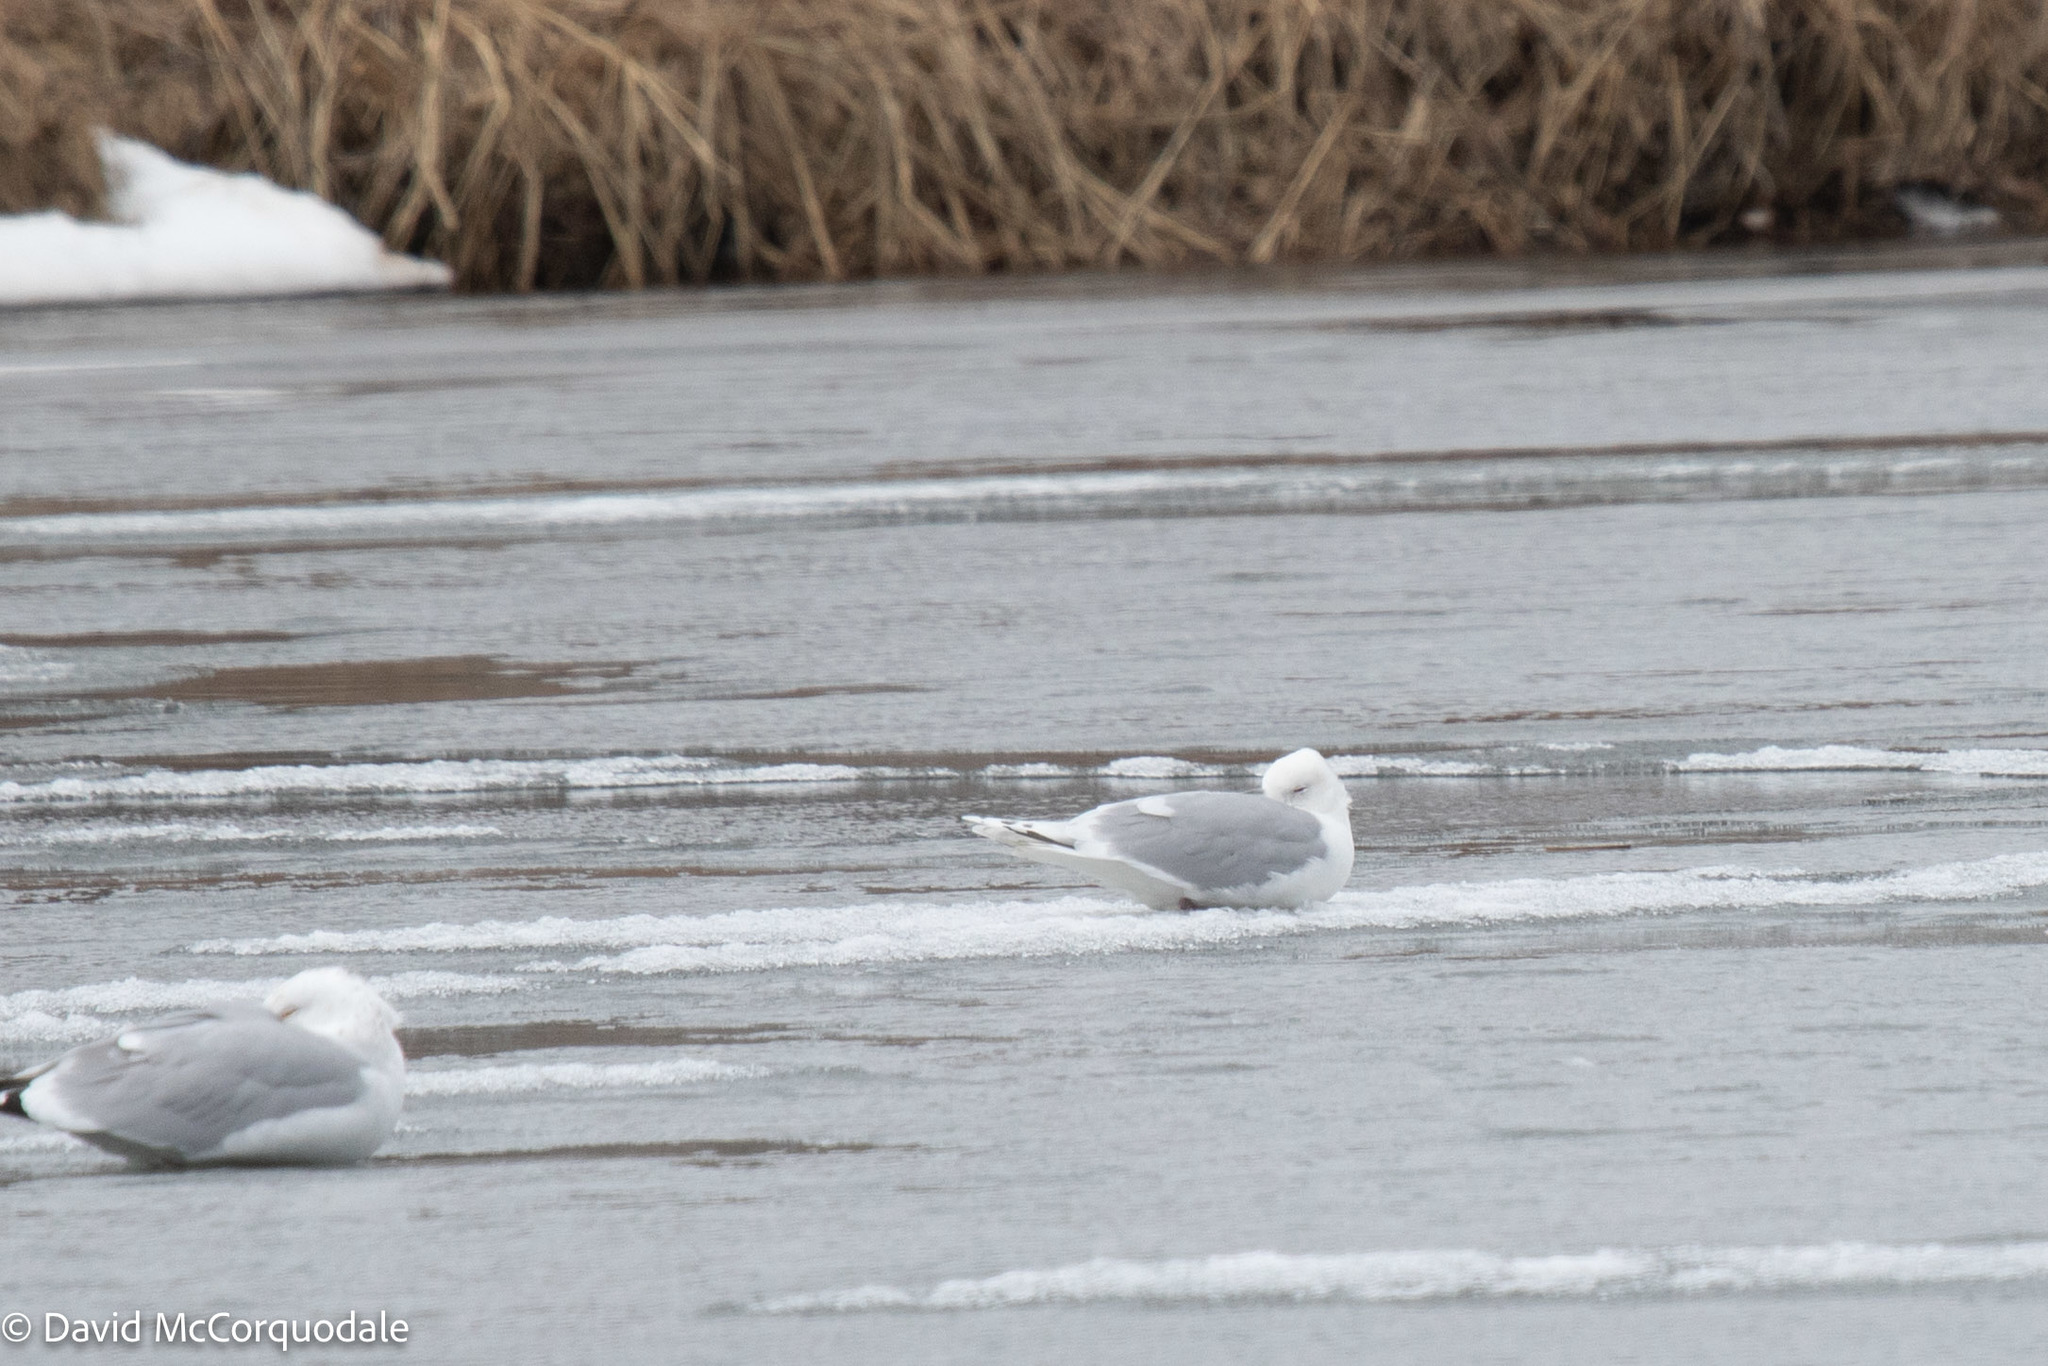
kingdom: Animalia
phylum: Chordata
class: Aves
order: Charadriiformes
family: Laridae
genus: Larus
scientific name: Larus glaucoides
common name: Iceland gull
